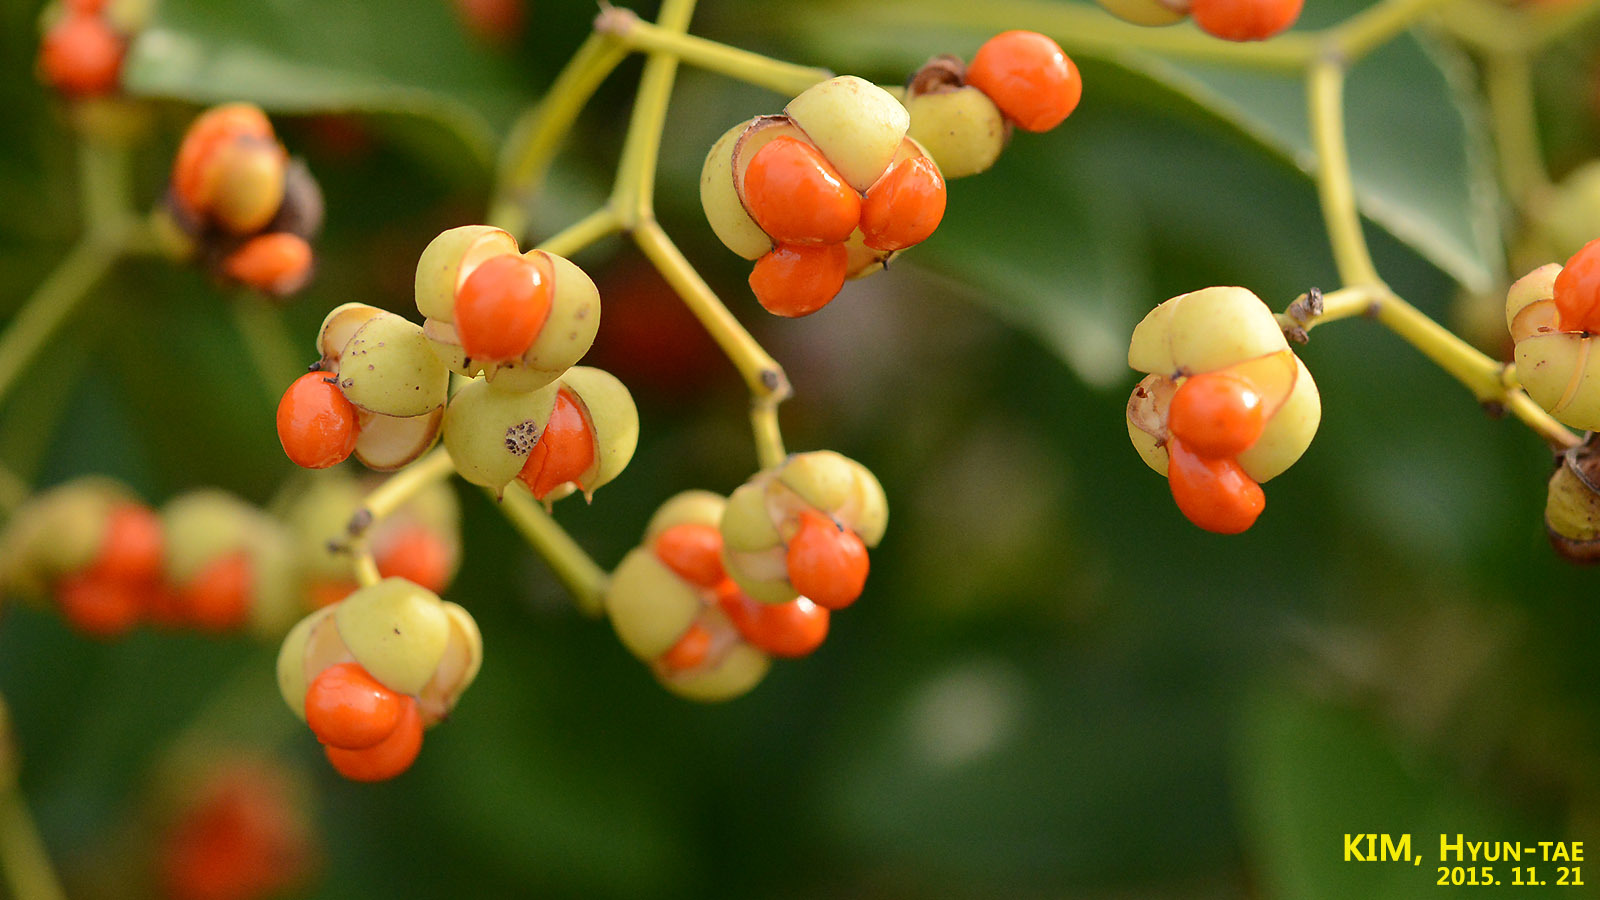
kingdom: Plantae
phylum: Tracheophyta
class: Magnoliopsida
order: Celastrales
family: Celastraceae
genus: Euonymus
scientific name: Euonymus japonicus
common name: Japanese spindletree
